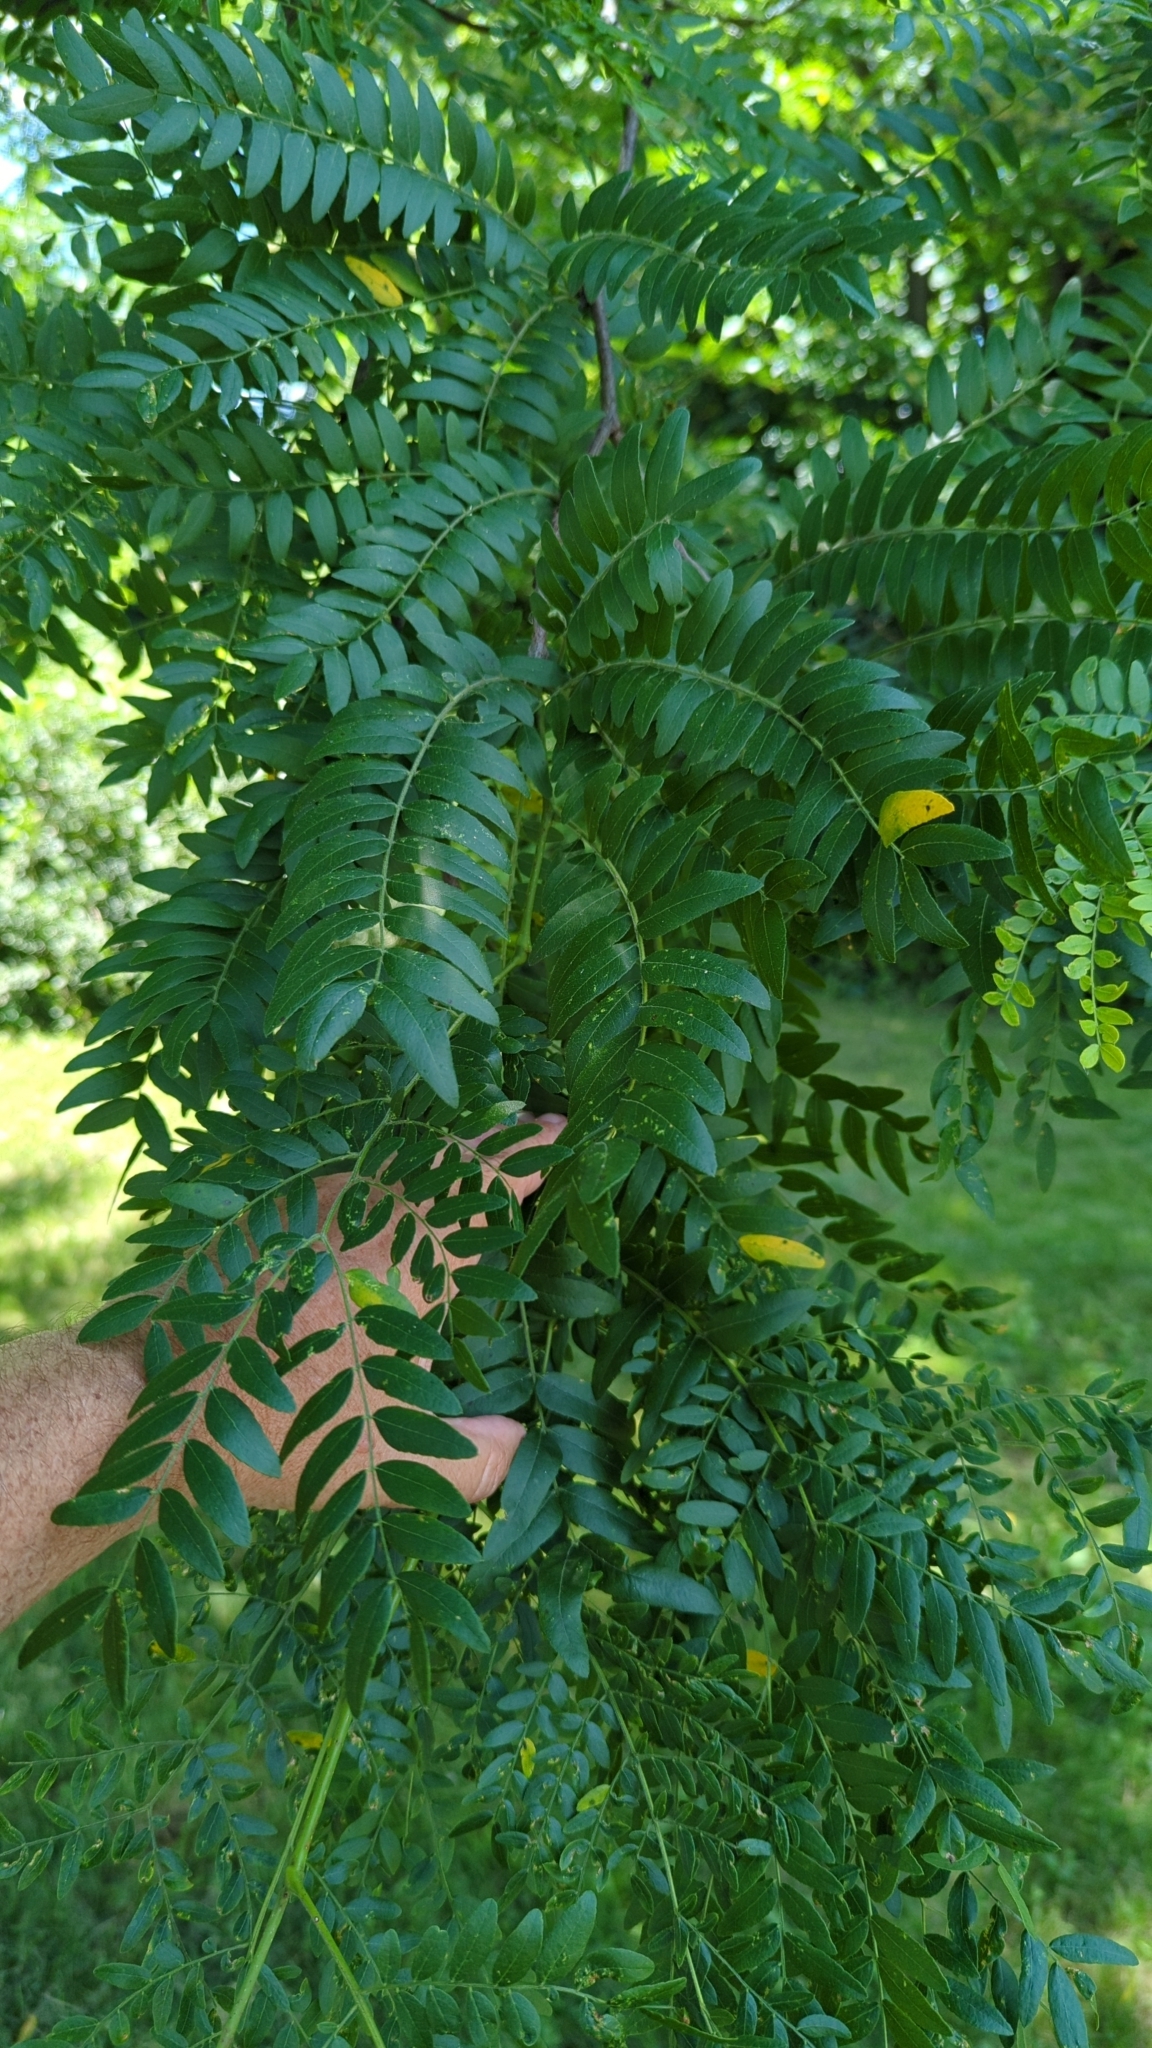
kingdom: Plantae
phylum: Tracheophyta
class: Magnoliopsida
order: Fabales
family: Fabaceae
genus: Gleditsia
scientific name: Gleditsia triacanthos
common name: Common honeylocust
